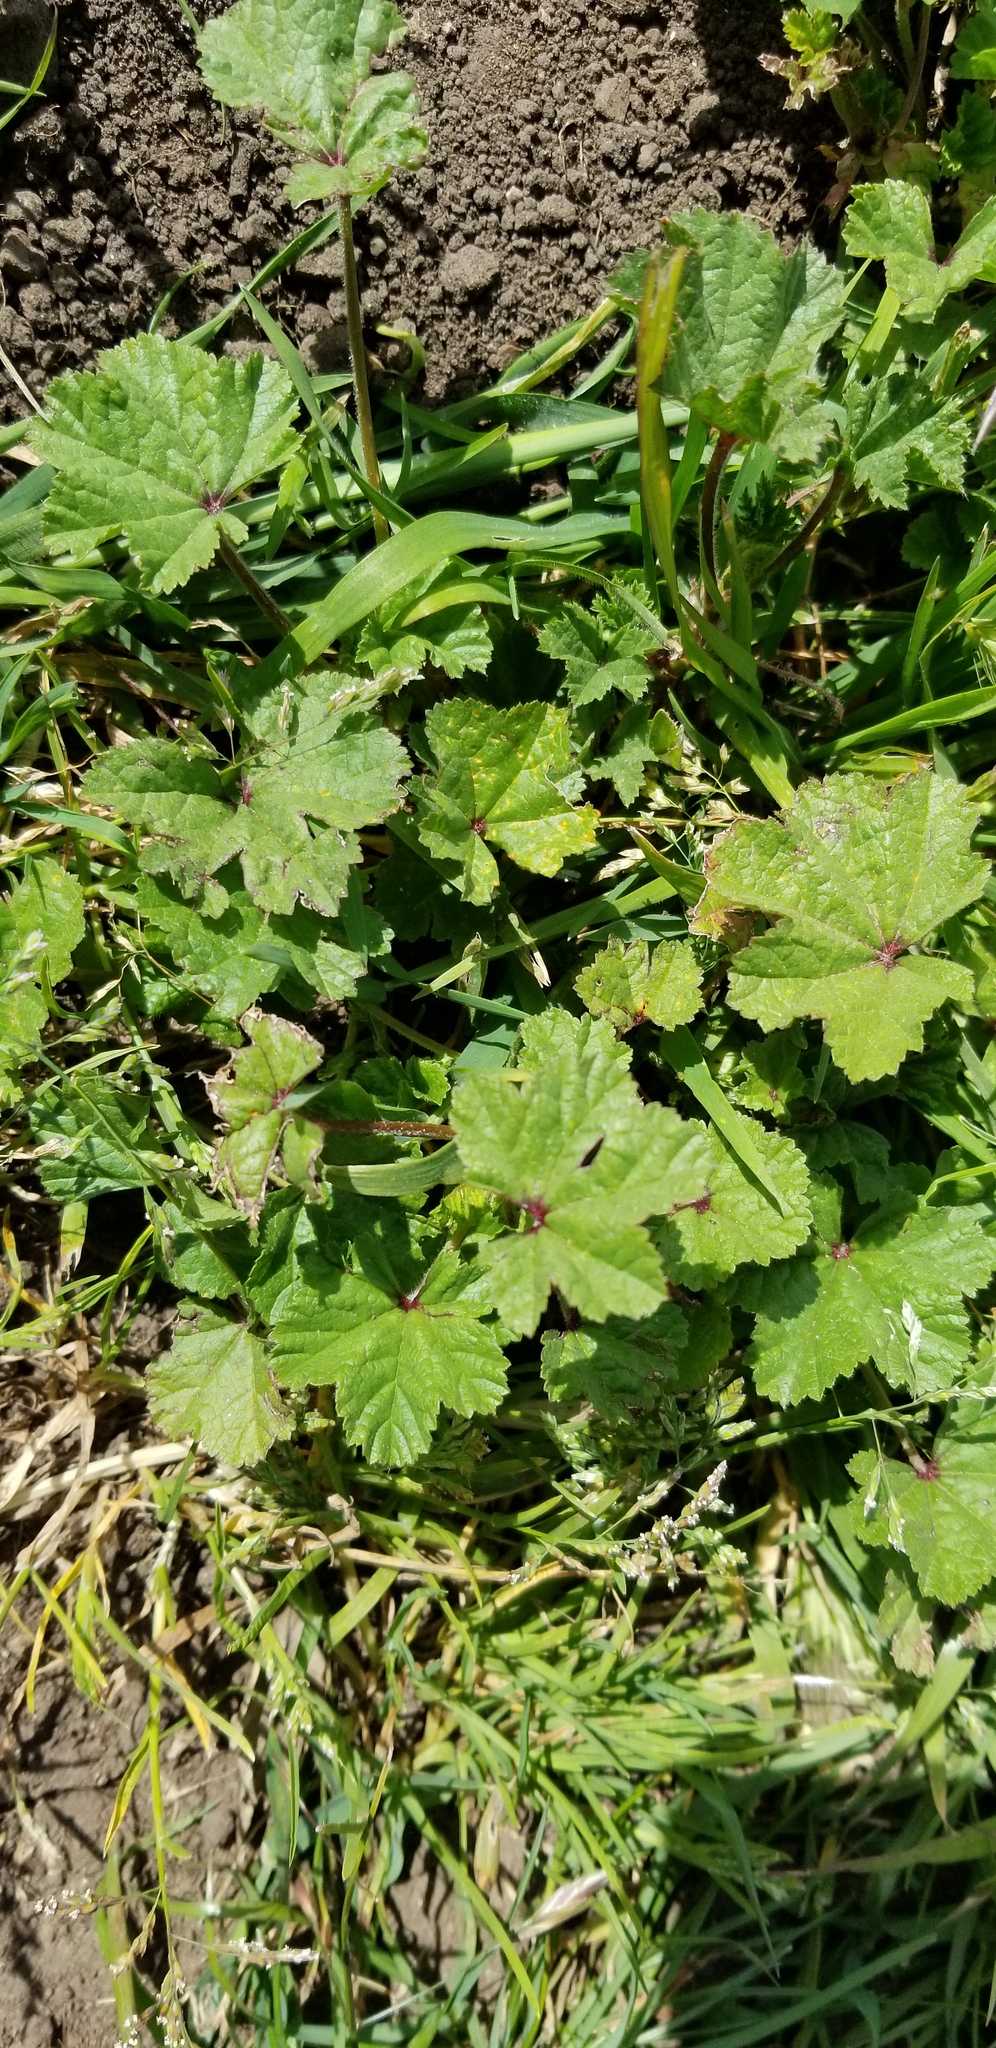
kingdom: Plantae
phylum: Tracheophyta
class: Magnoliopsida
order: Malvales
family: Malvaceae
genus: Malva
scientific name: Malva
